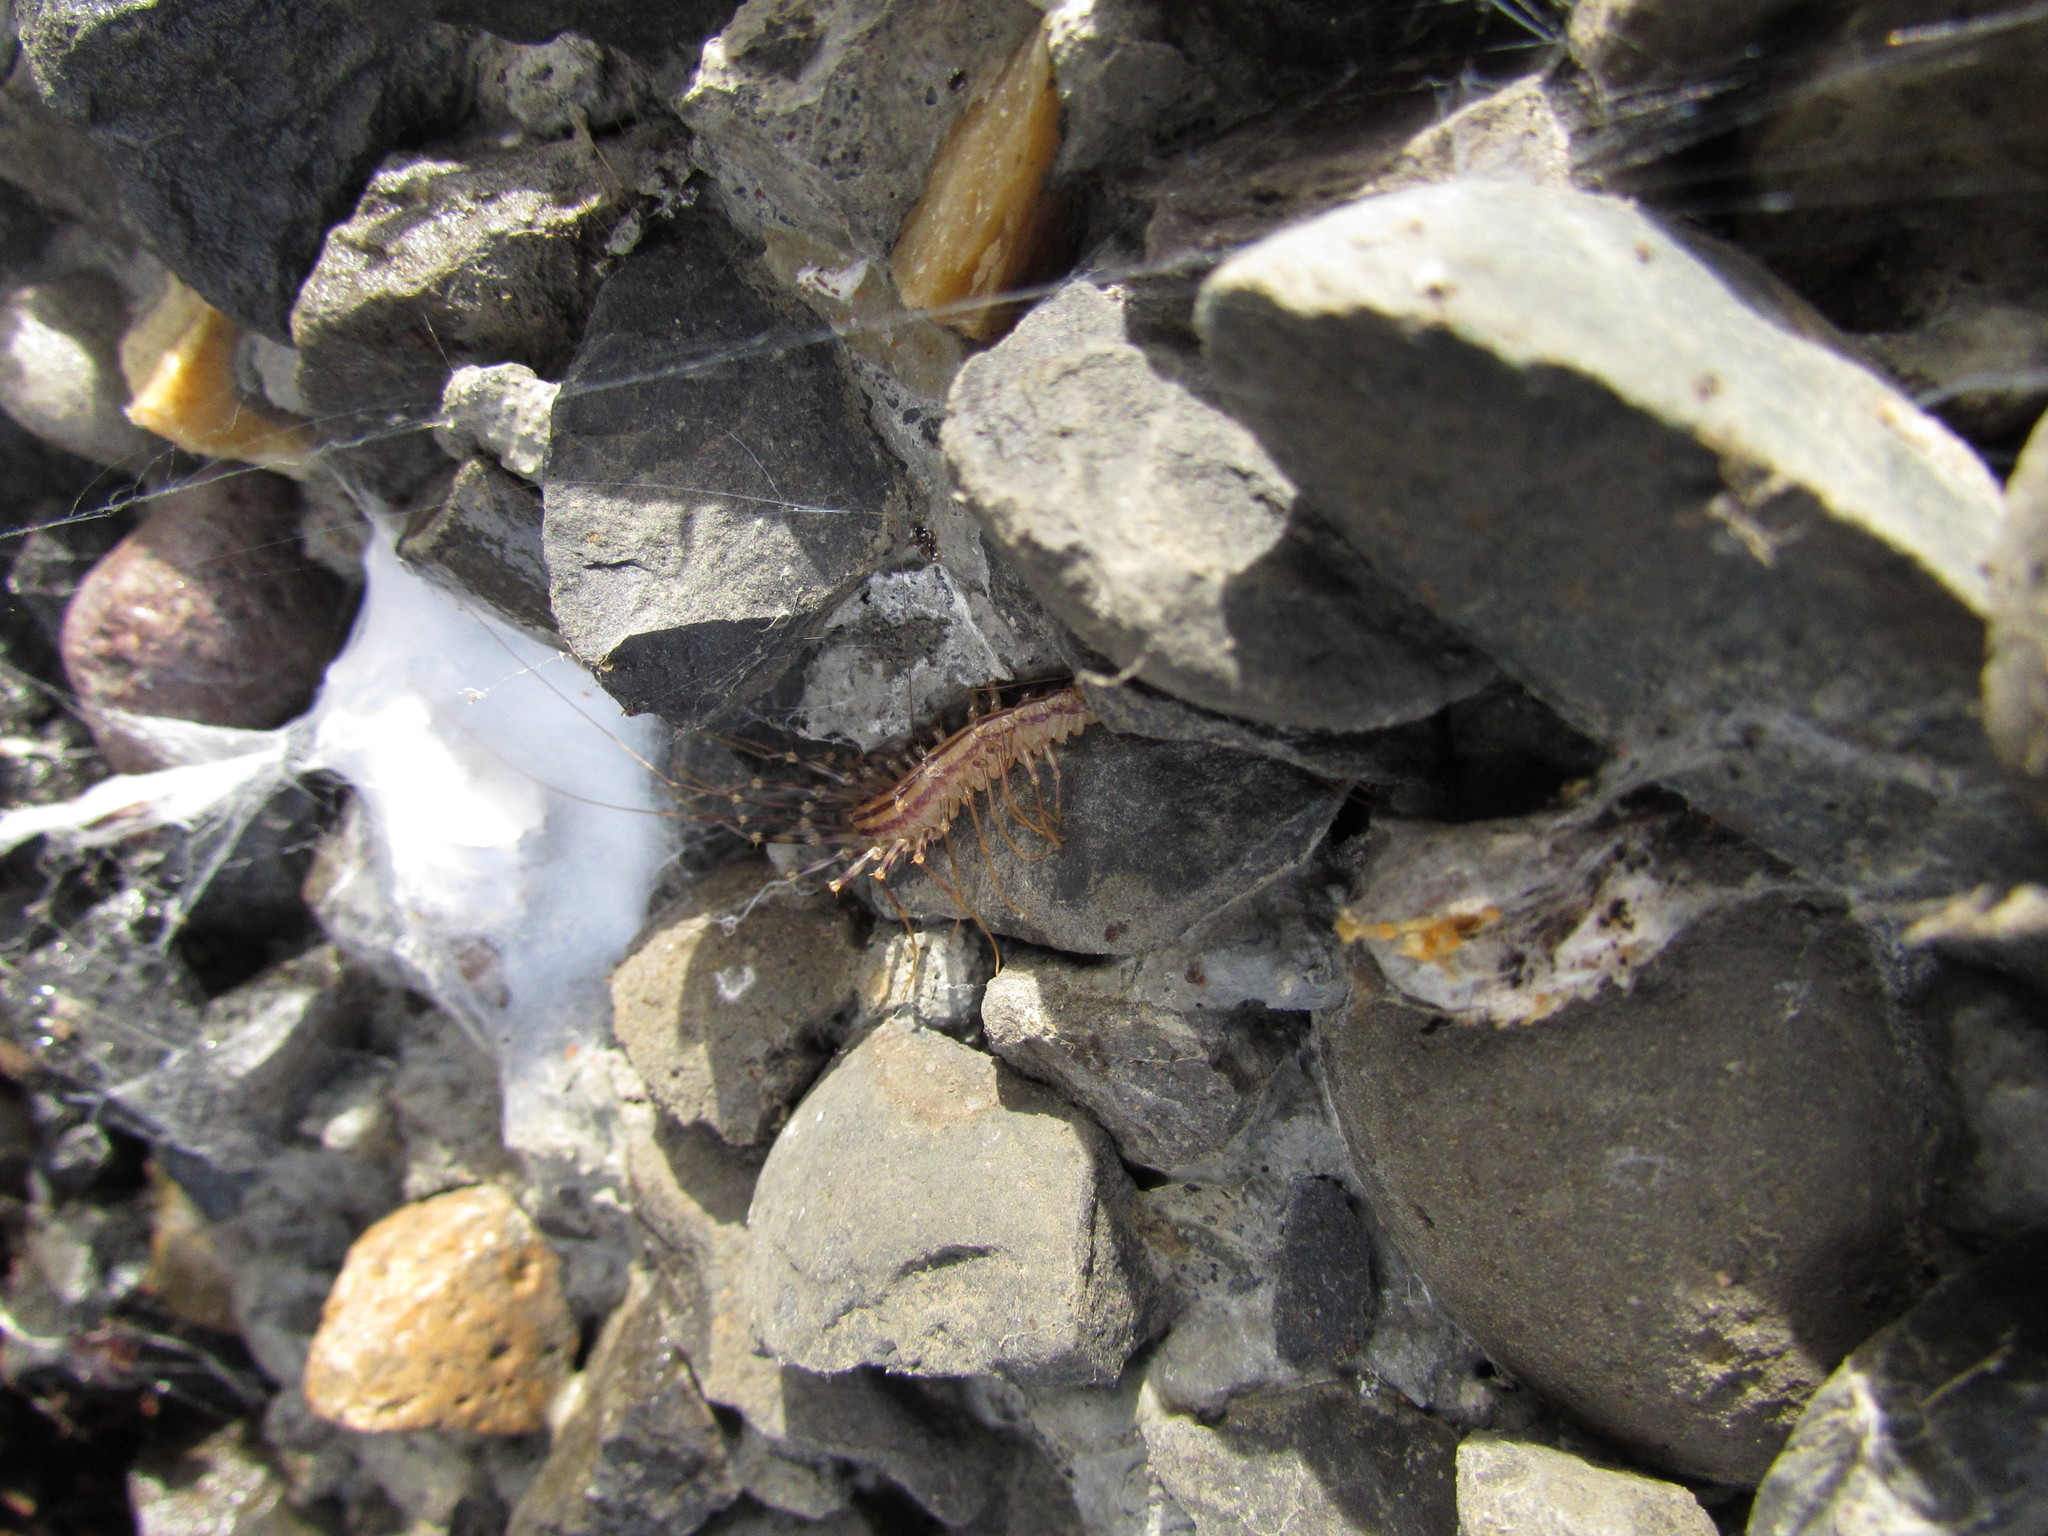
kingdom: Animalia
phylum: Arthropoda
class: Chilopoda
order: Scutigeromorpha
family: Scutigeridae
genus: Scutigera
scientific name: Scutigera coleoptrata
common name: House centipede
